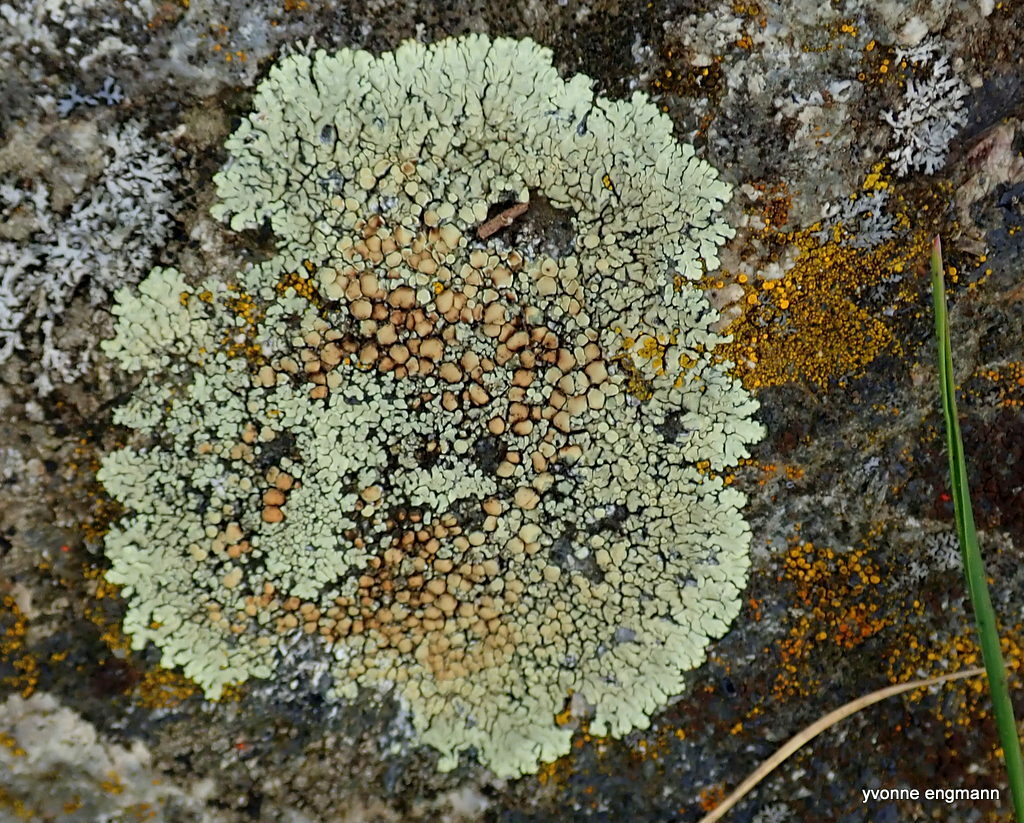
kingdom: Fungi
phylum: Ascomycota
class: Lecanoromycetes
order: Lecanorales
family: Lecanoraceae
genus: Protoparmeliopsis
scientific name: Protoparmeliopsis muralis
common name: Stonewall rim lichen
